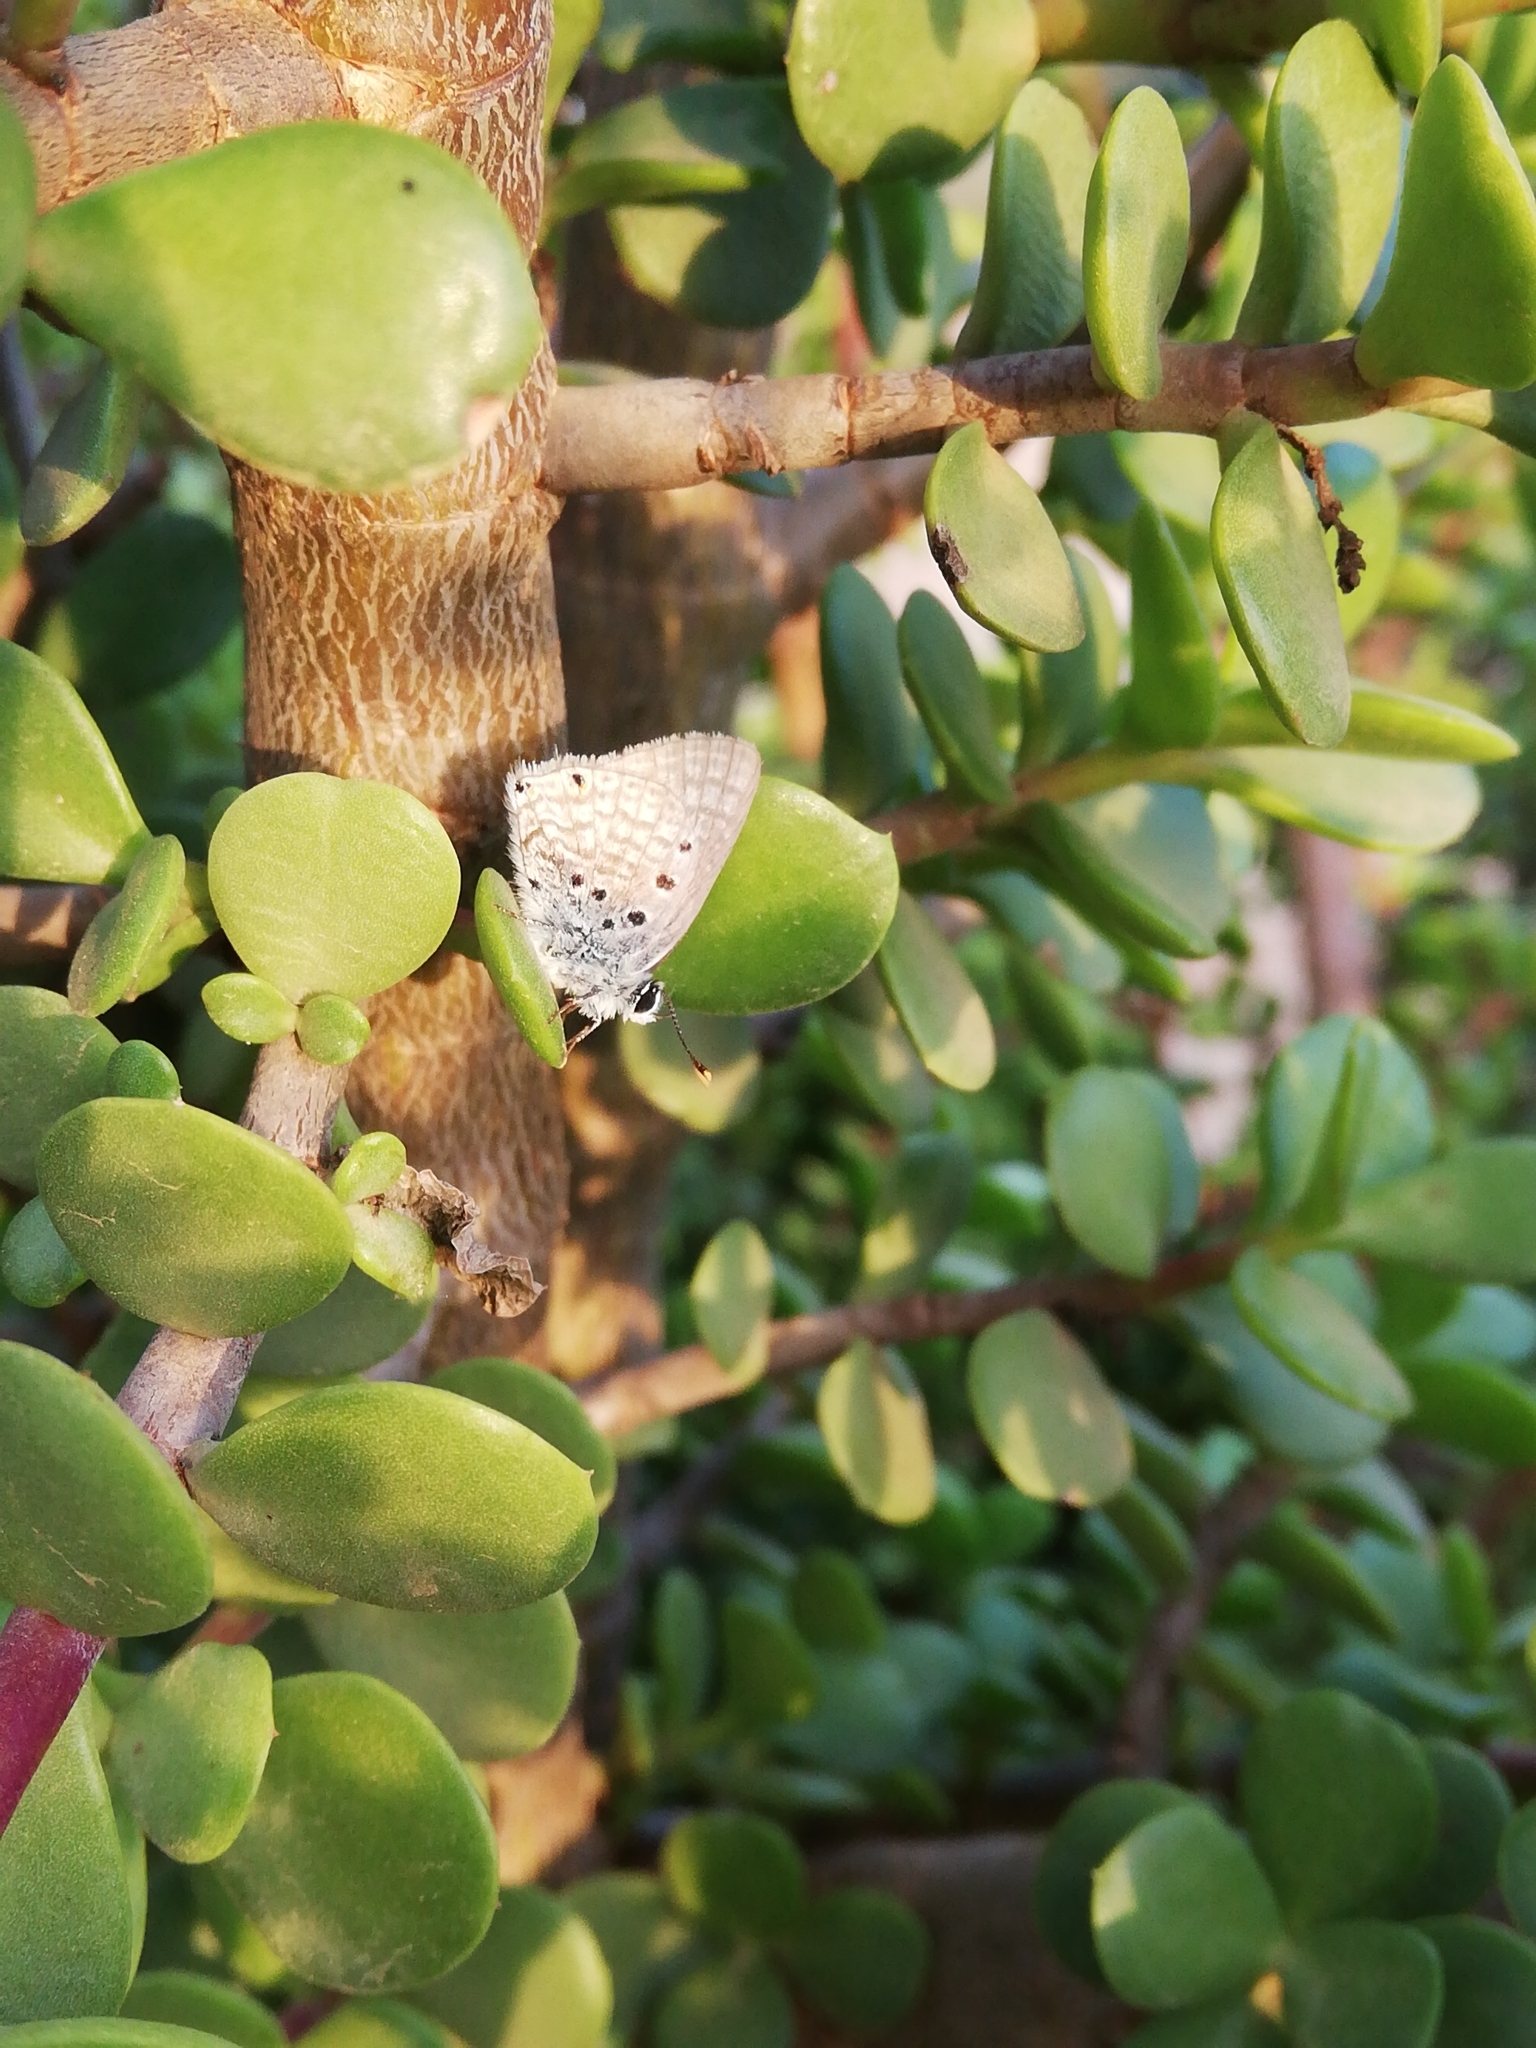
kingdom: Animalia
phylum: Arthropoda
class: Insecta
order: Lepidoptera
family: Lycaenidae
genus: Anthene
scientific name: Anthene amarah
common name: Black-striped hairtail
